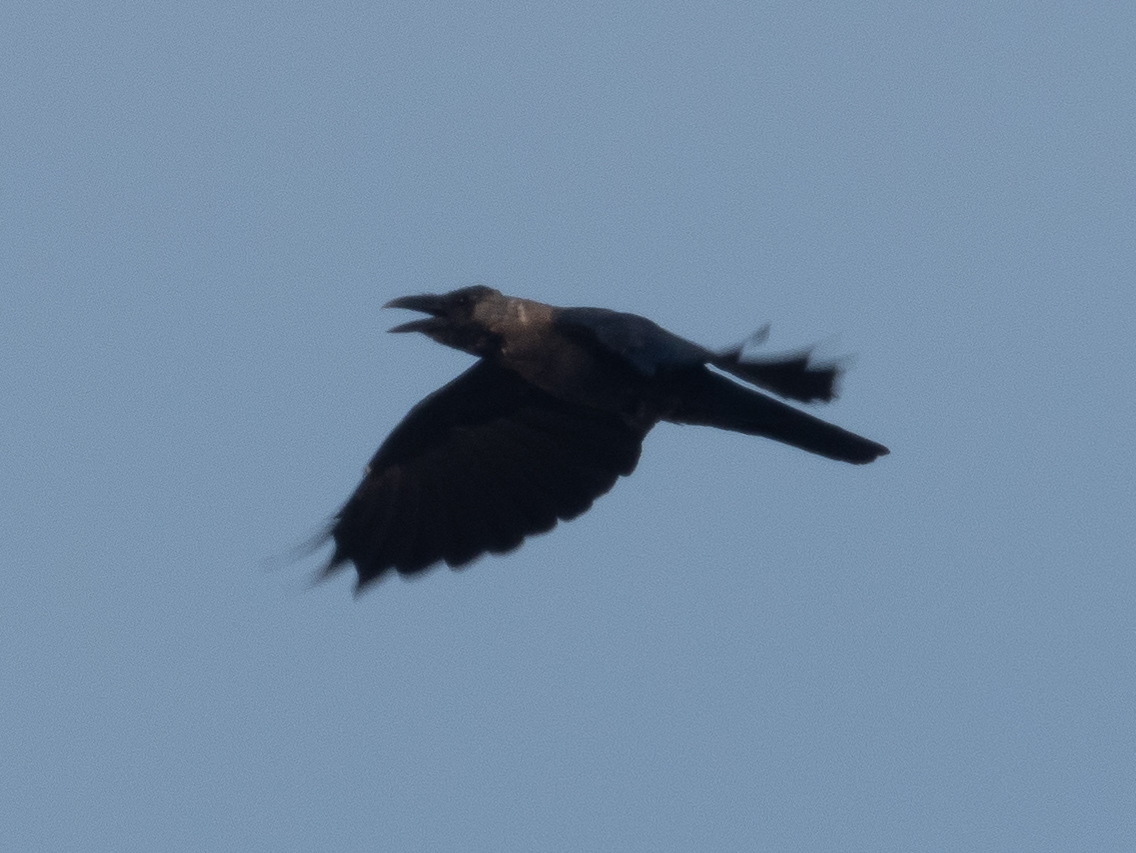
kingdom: Animalia
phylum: Chordata
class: Aves
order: Passeriformes
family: Corvidae
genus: Corvus
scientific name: Corvus splendens
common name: House crow
